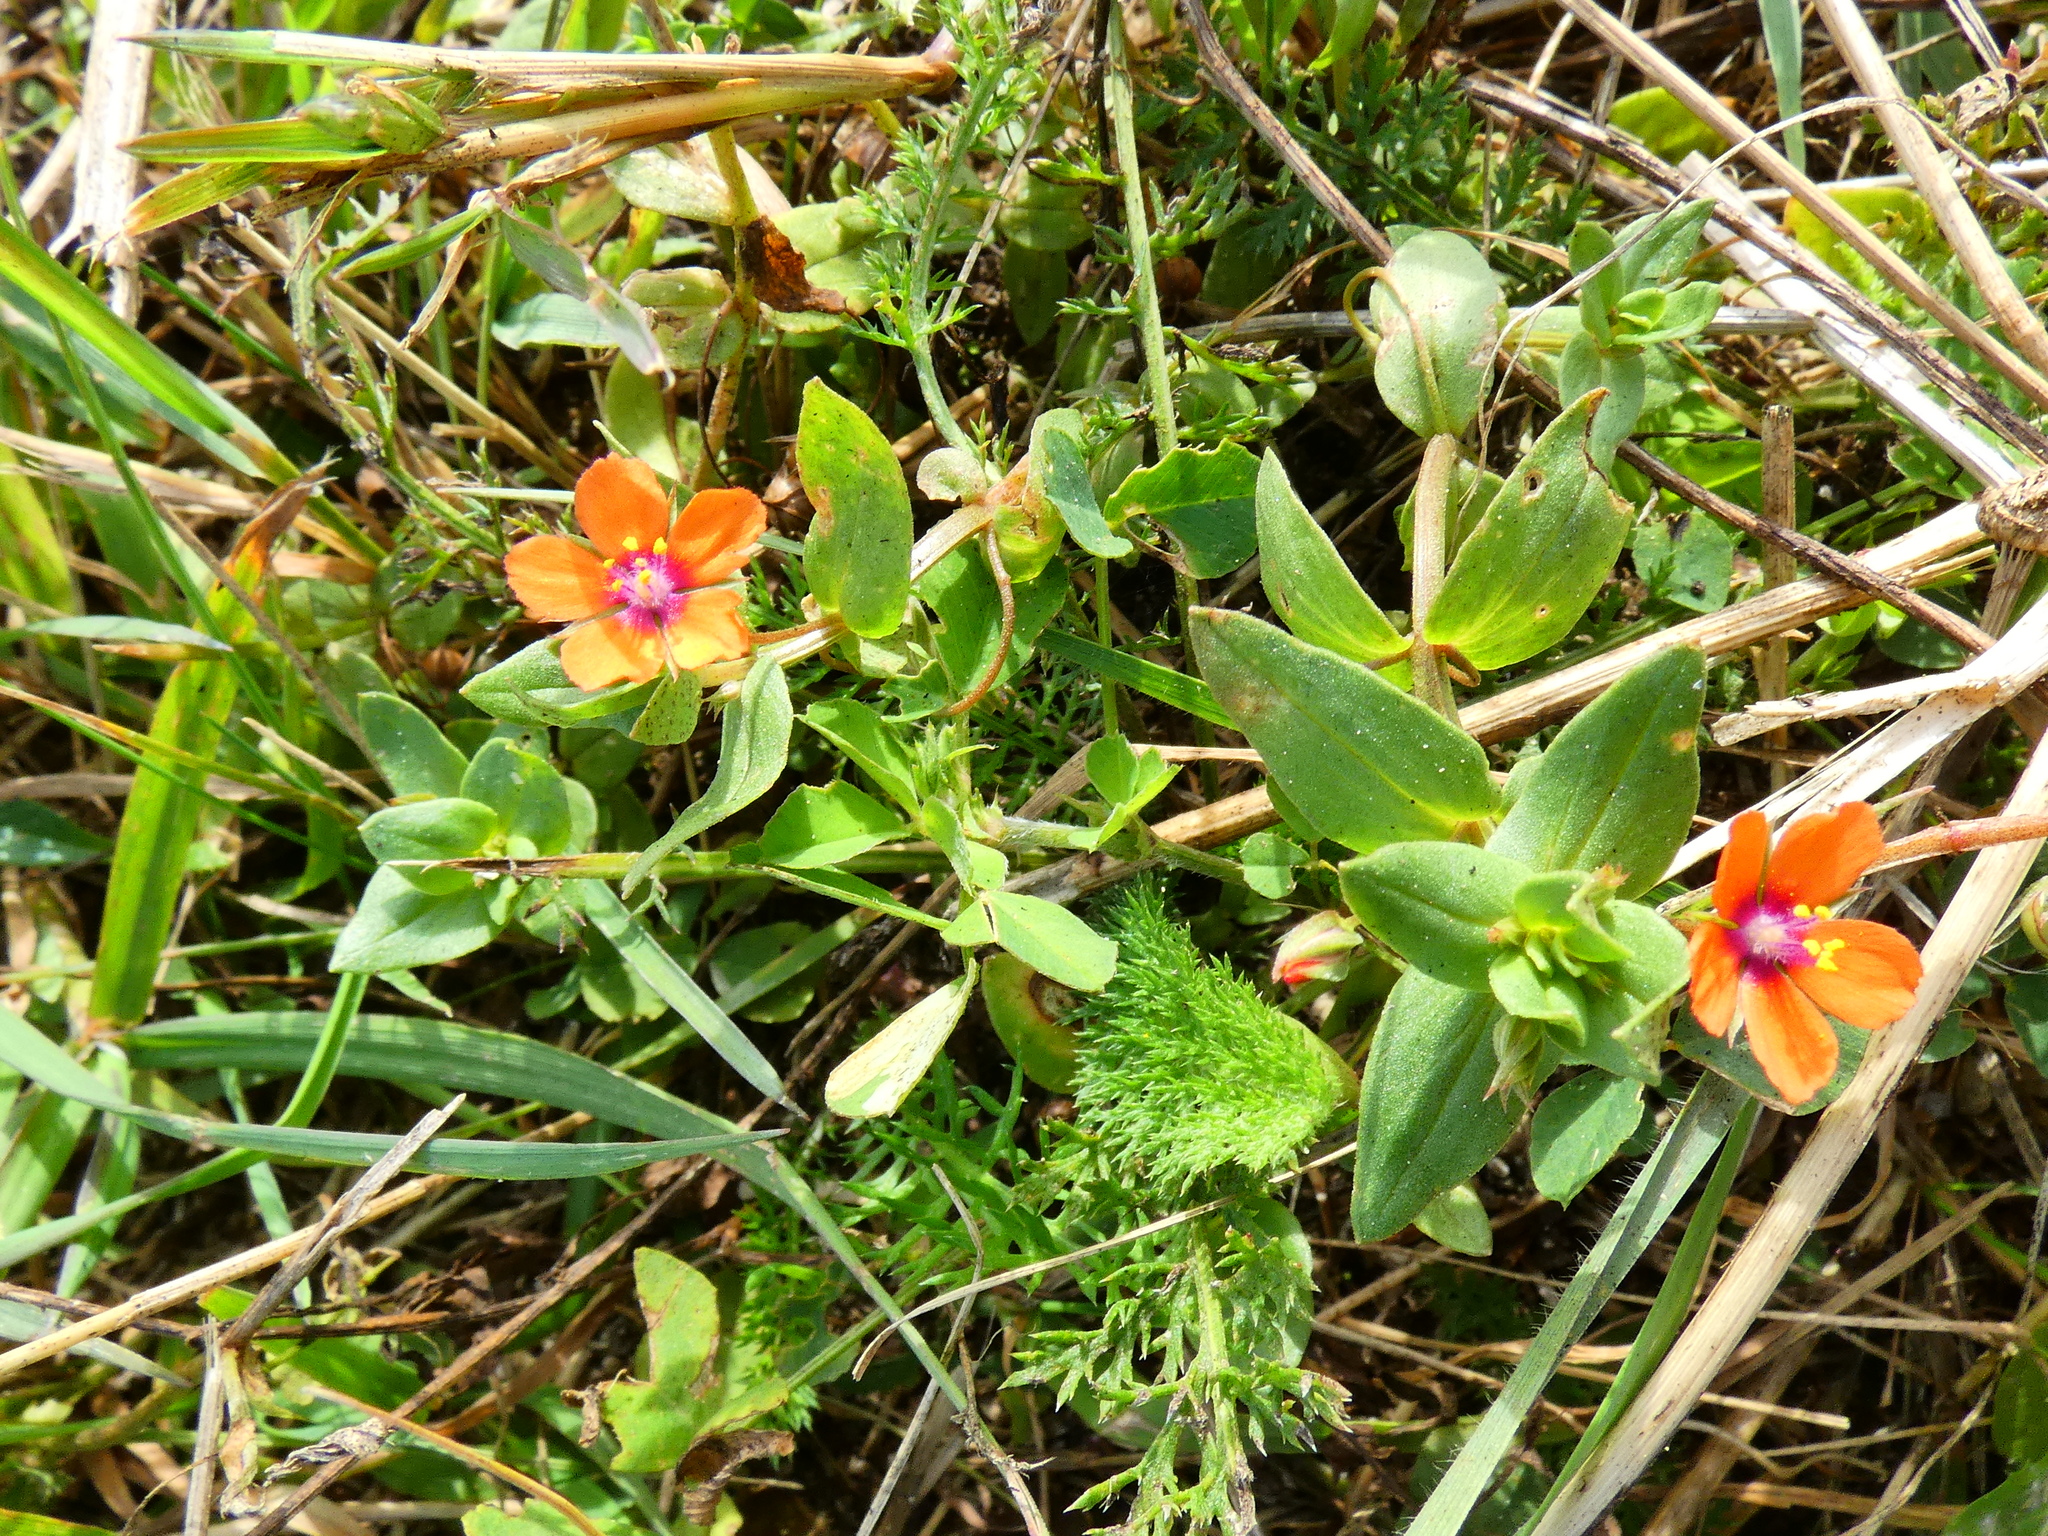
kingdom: Plantae
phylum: Tracheophyta
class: Magnoliopsida
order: Ericales
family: Primulaceae
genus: Lysimachia
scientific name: Lysimachia arvensis
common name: Scarlet pimpernel
